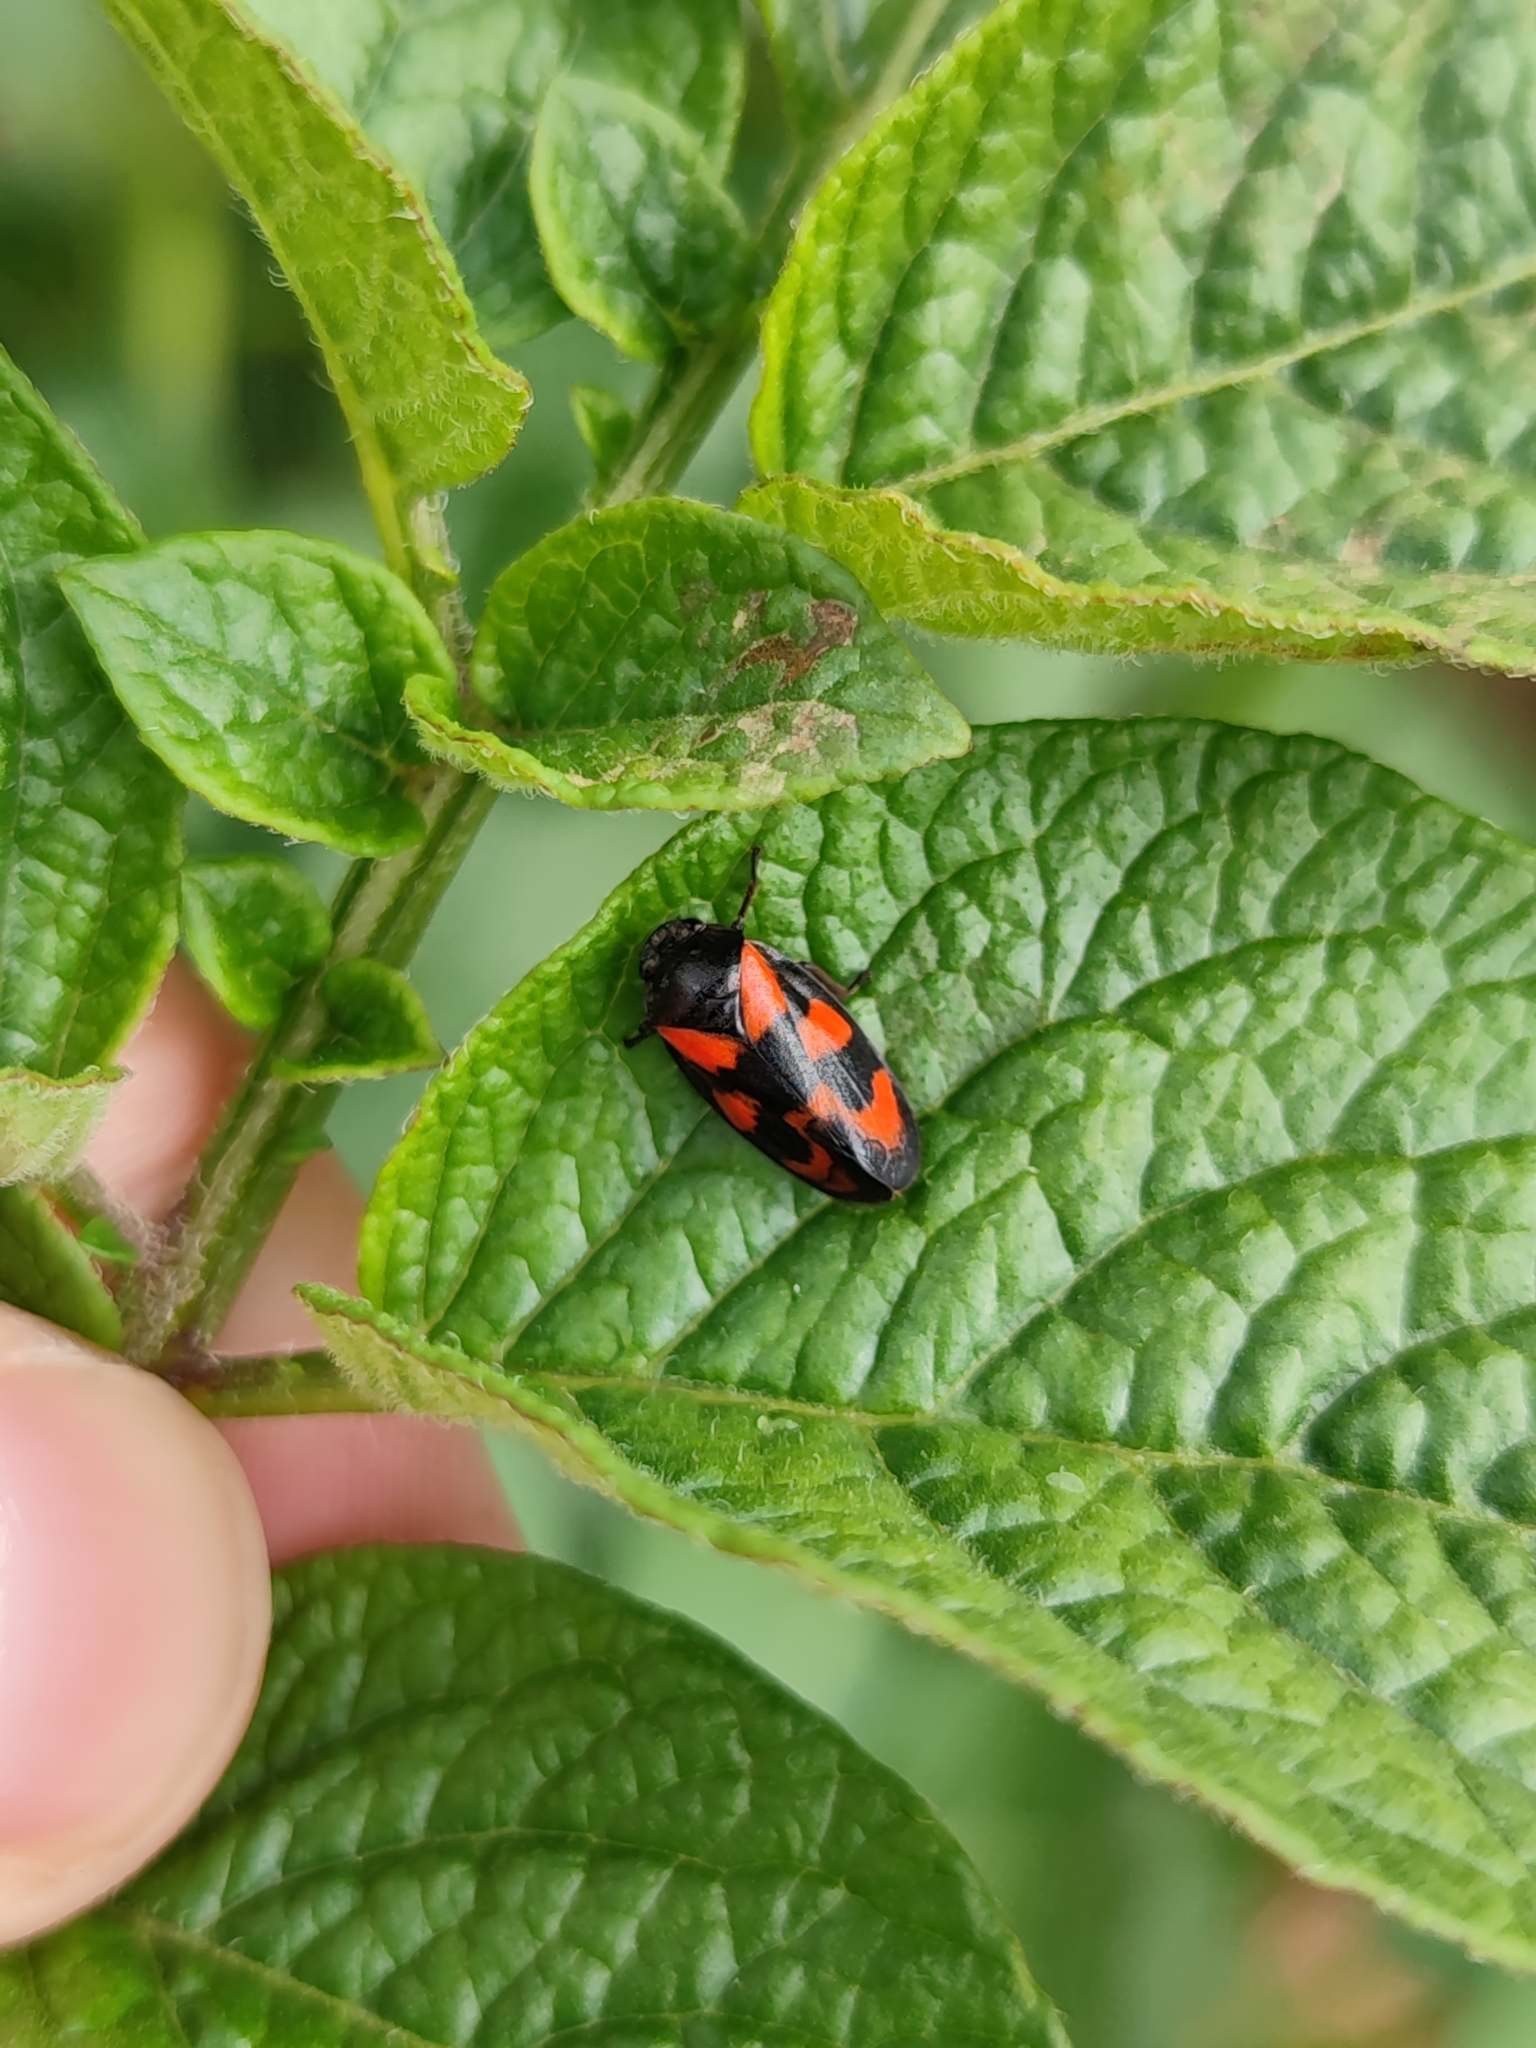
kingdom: Animalia
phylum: Arthropoda
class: Insecta
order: Hemiptera
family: Cercopidae
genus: Cercopis
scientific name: Cercopis vulnerata
